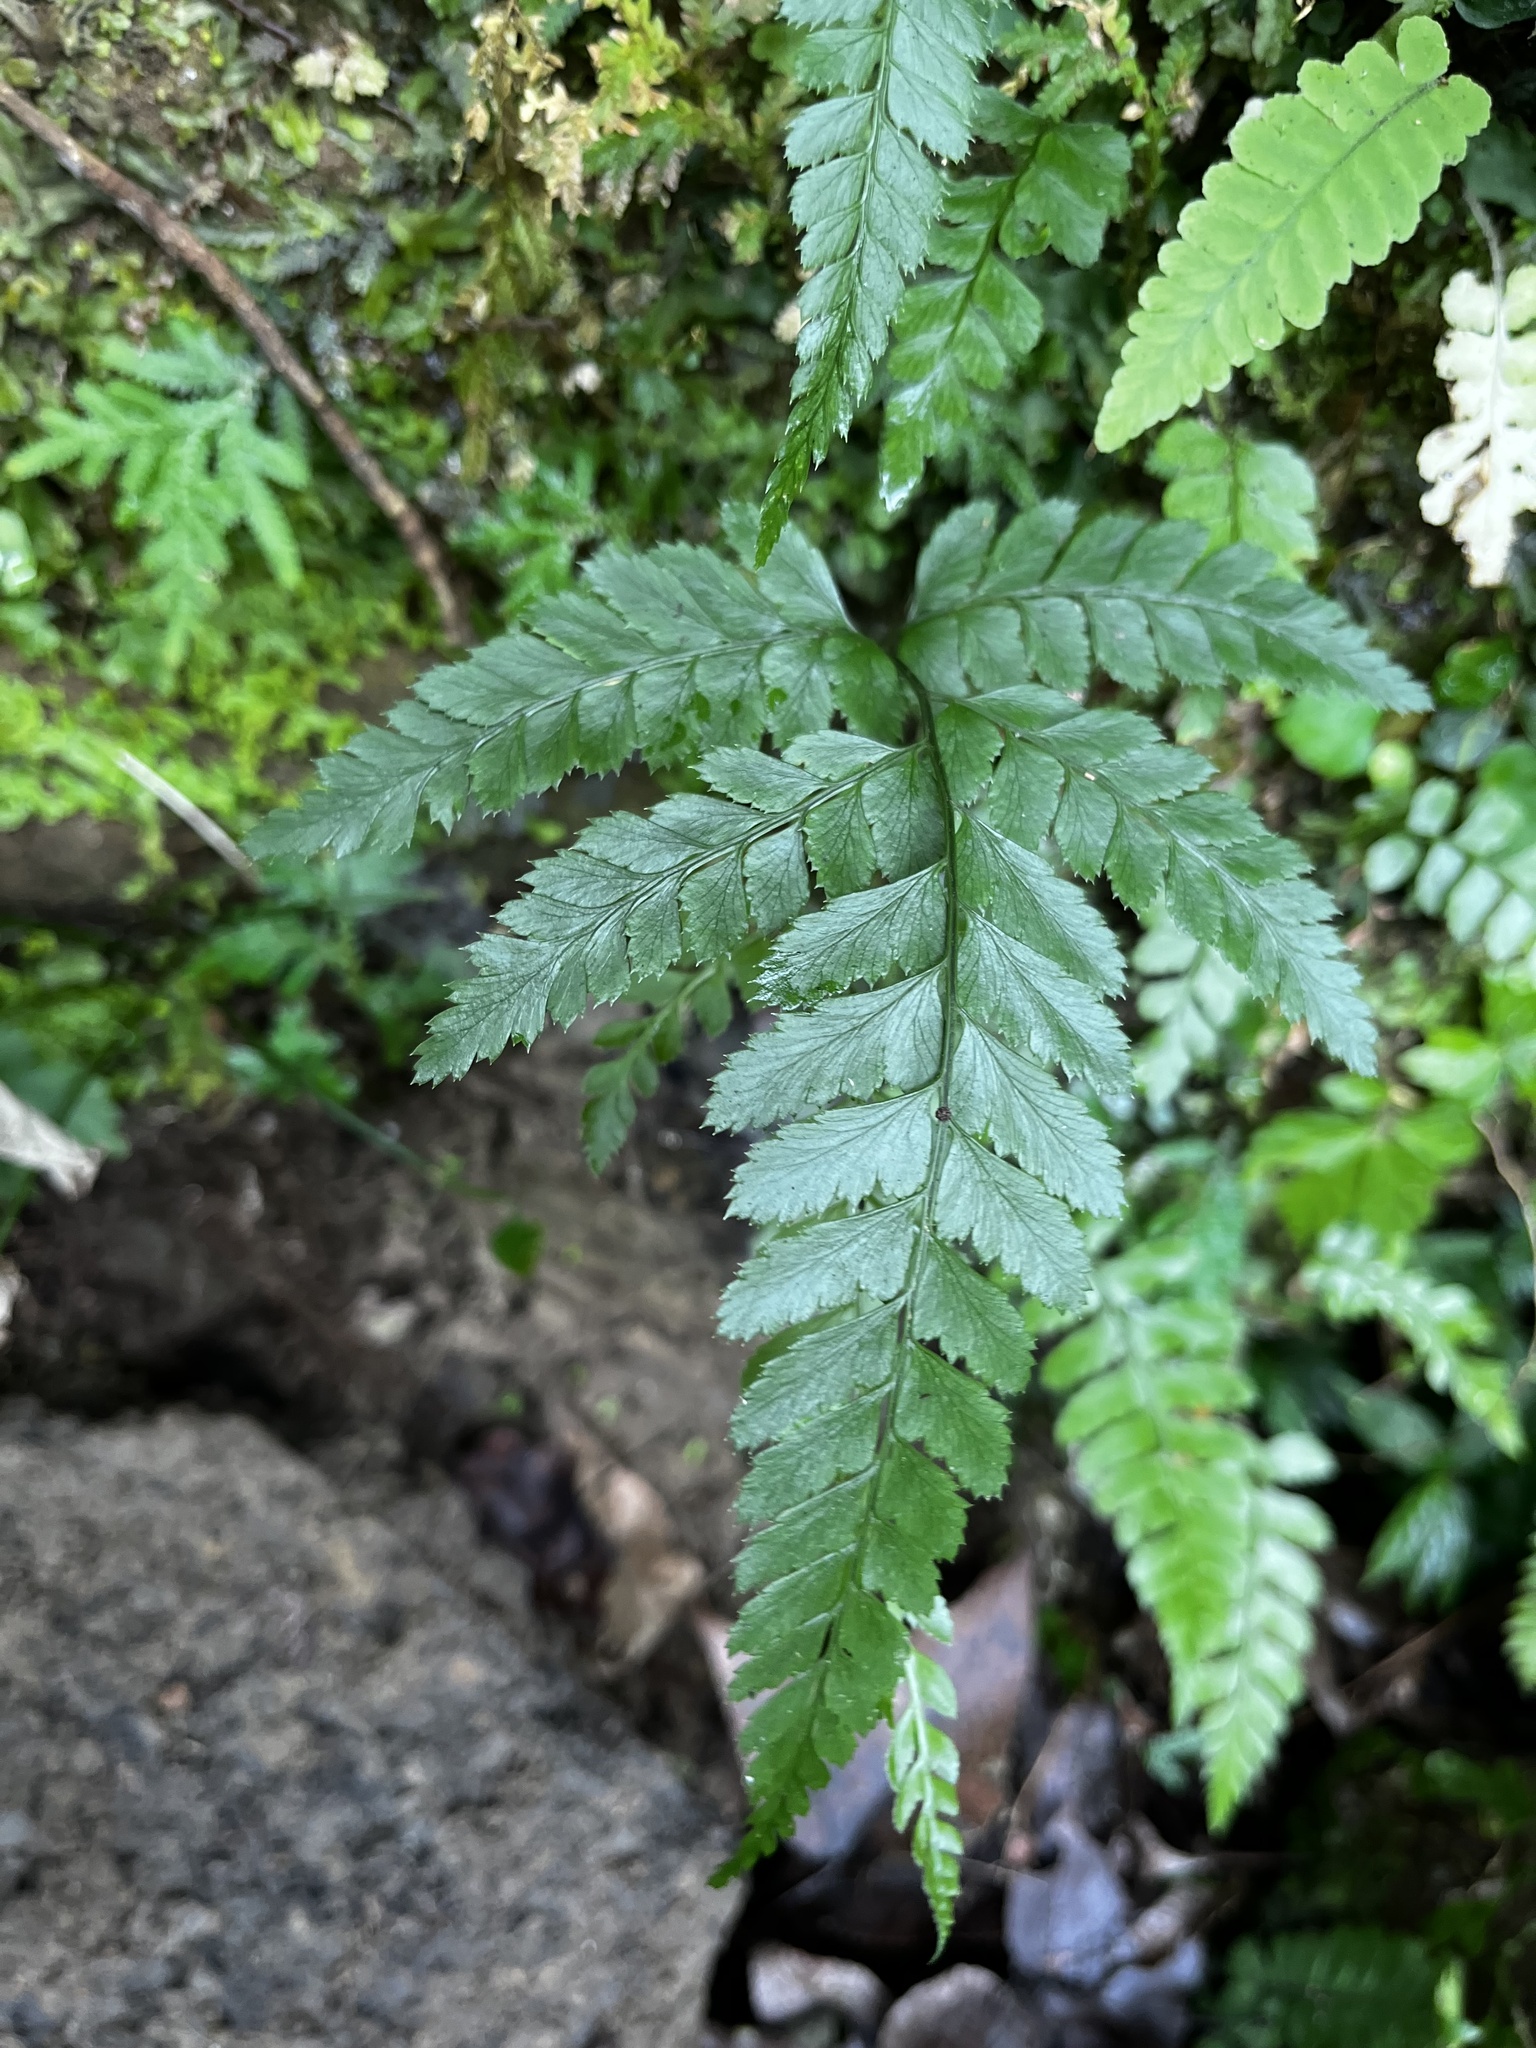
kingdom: Plantae
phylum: Tracheophyta
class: Polypodiopsida
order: Polypodiales
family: Dryopteridaceae
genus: Arachniodes
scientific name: Arachniodes rhomboidea
